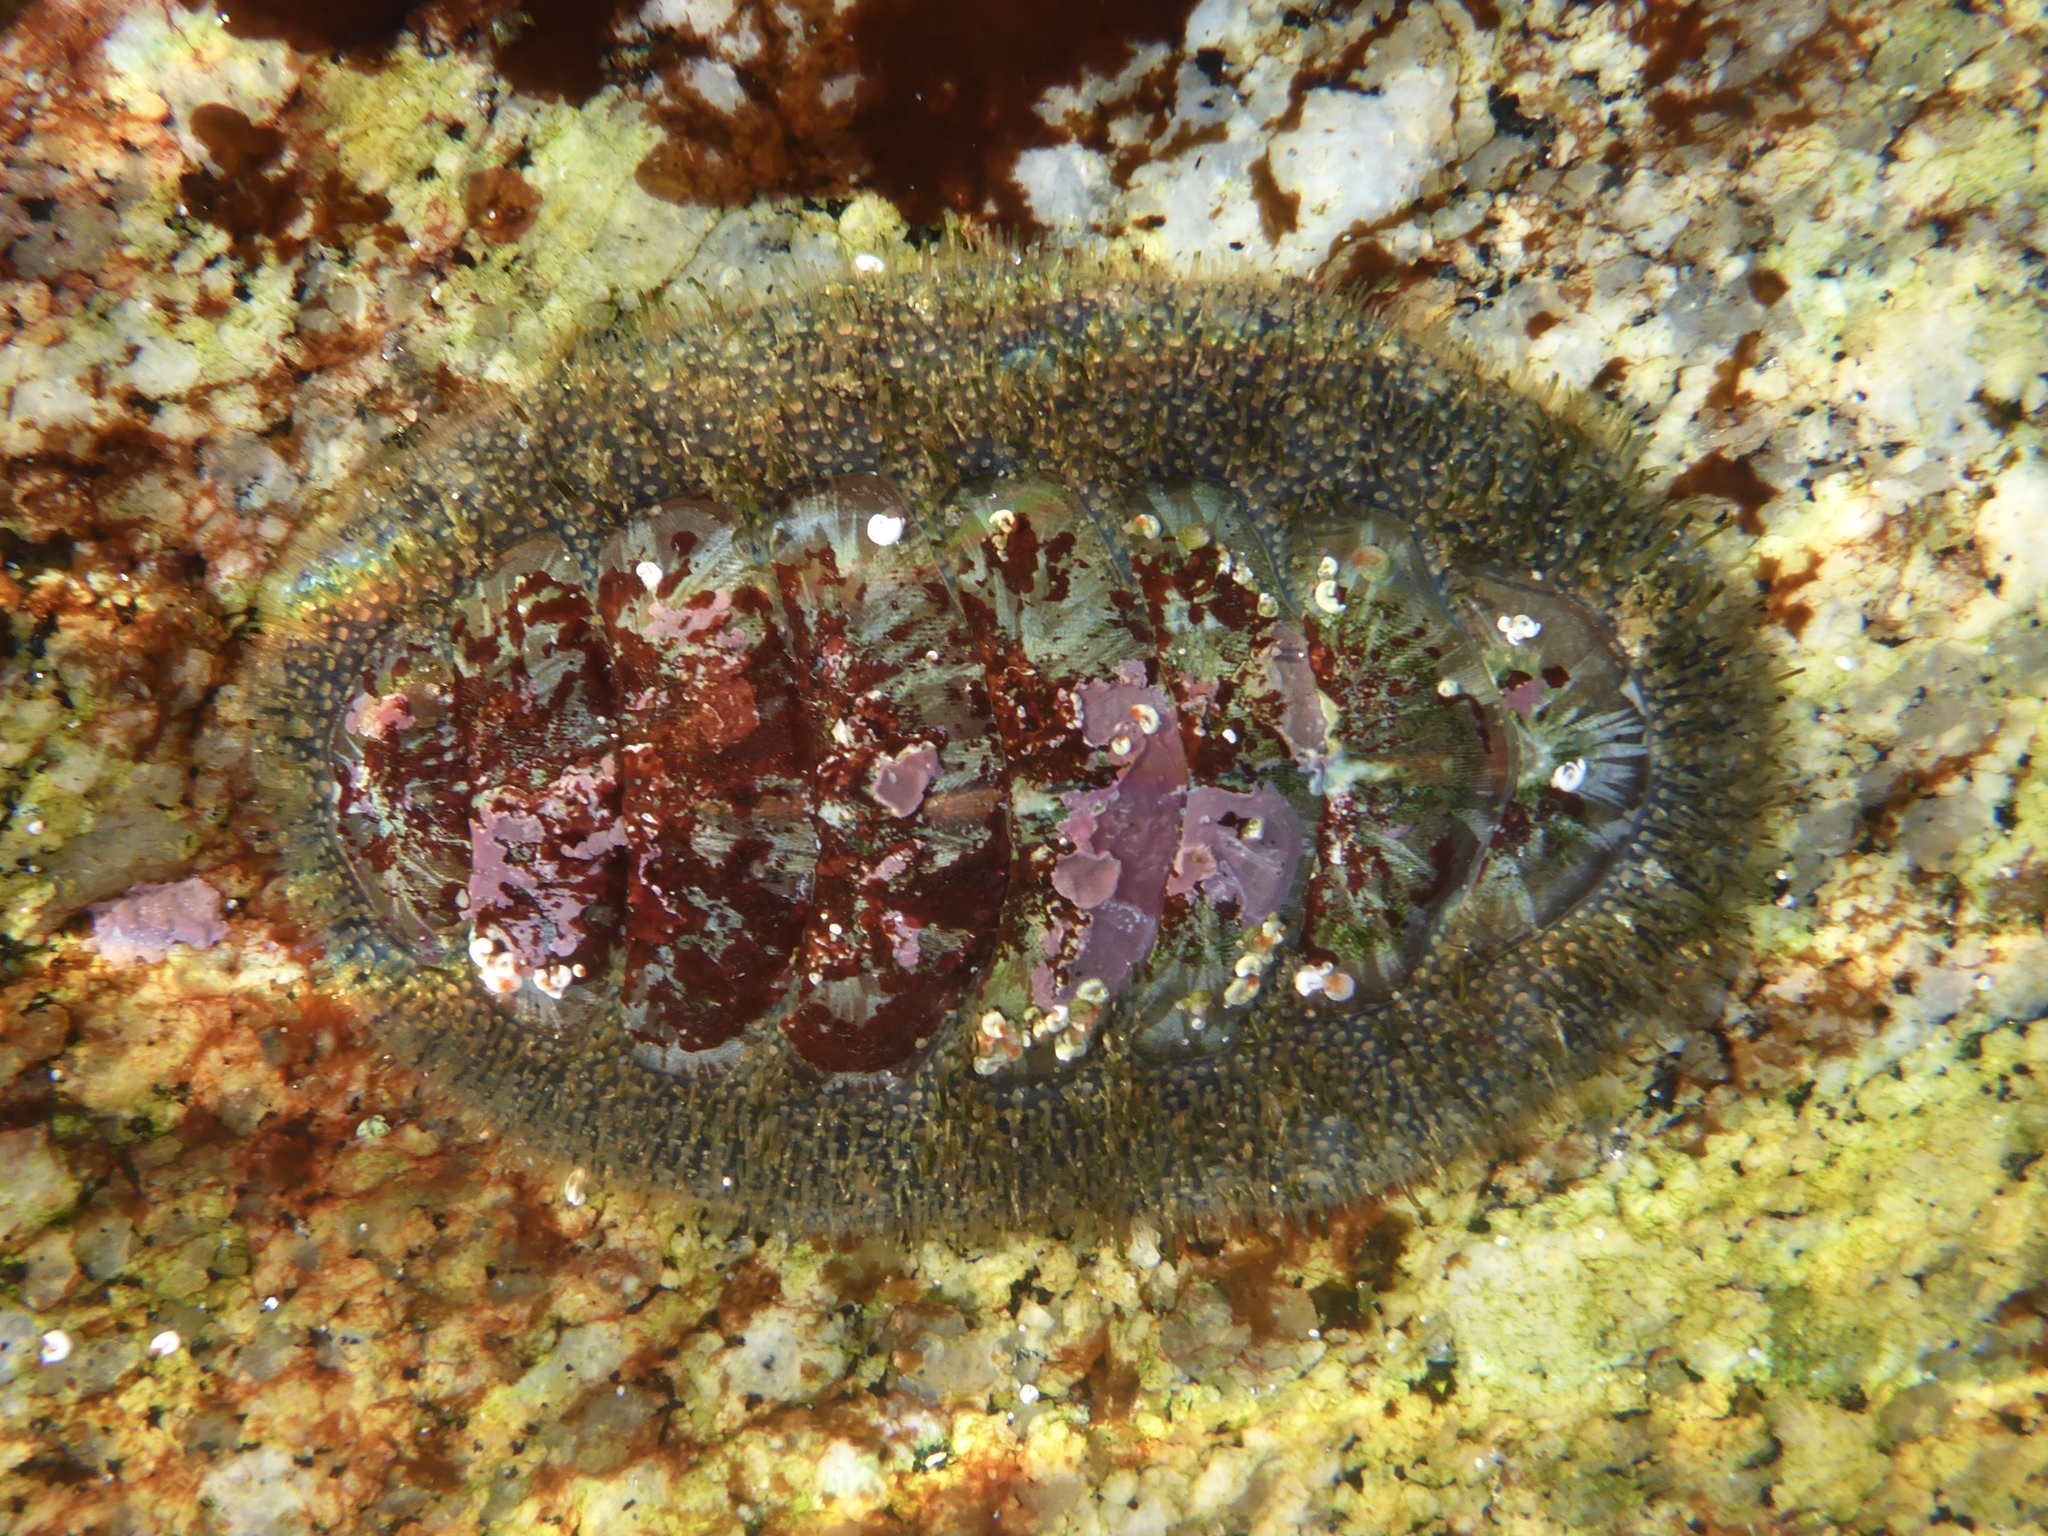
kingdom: Animalia
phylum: Mollusca
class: Polyplacophora
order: Chitonida
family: Mopaliidae
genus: Mopalia
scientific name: Mopalia lignosa
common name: Woody chiton
